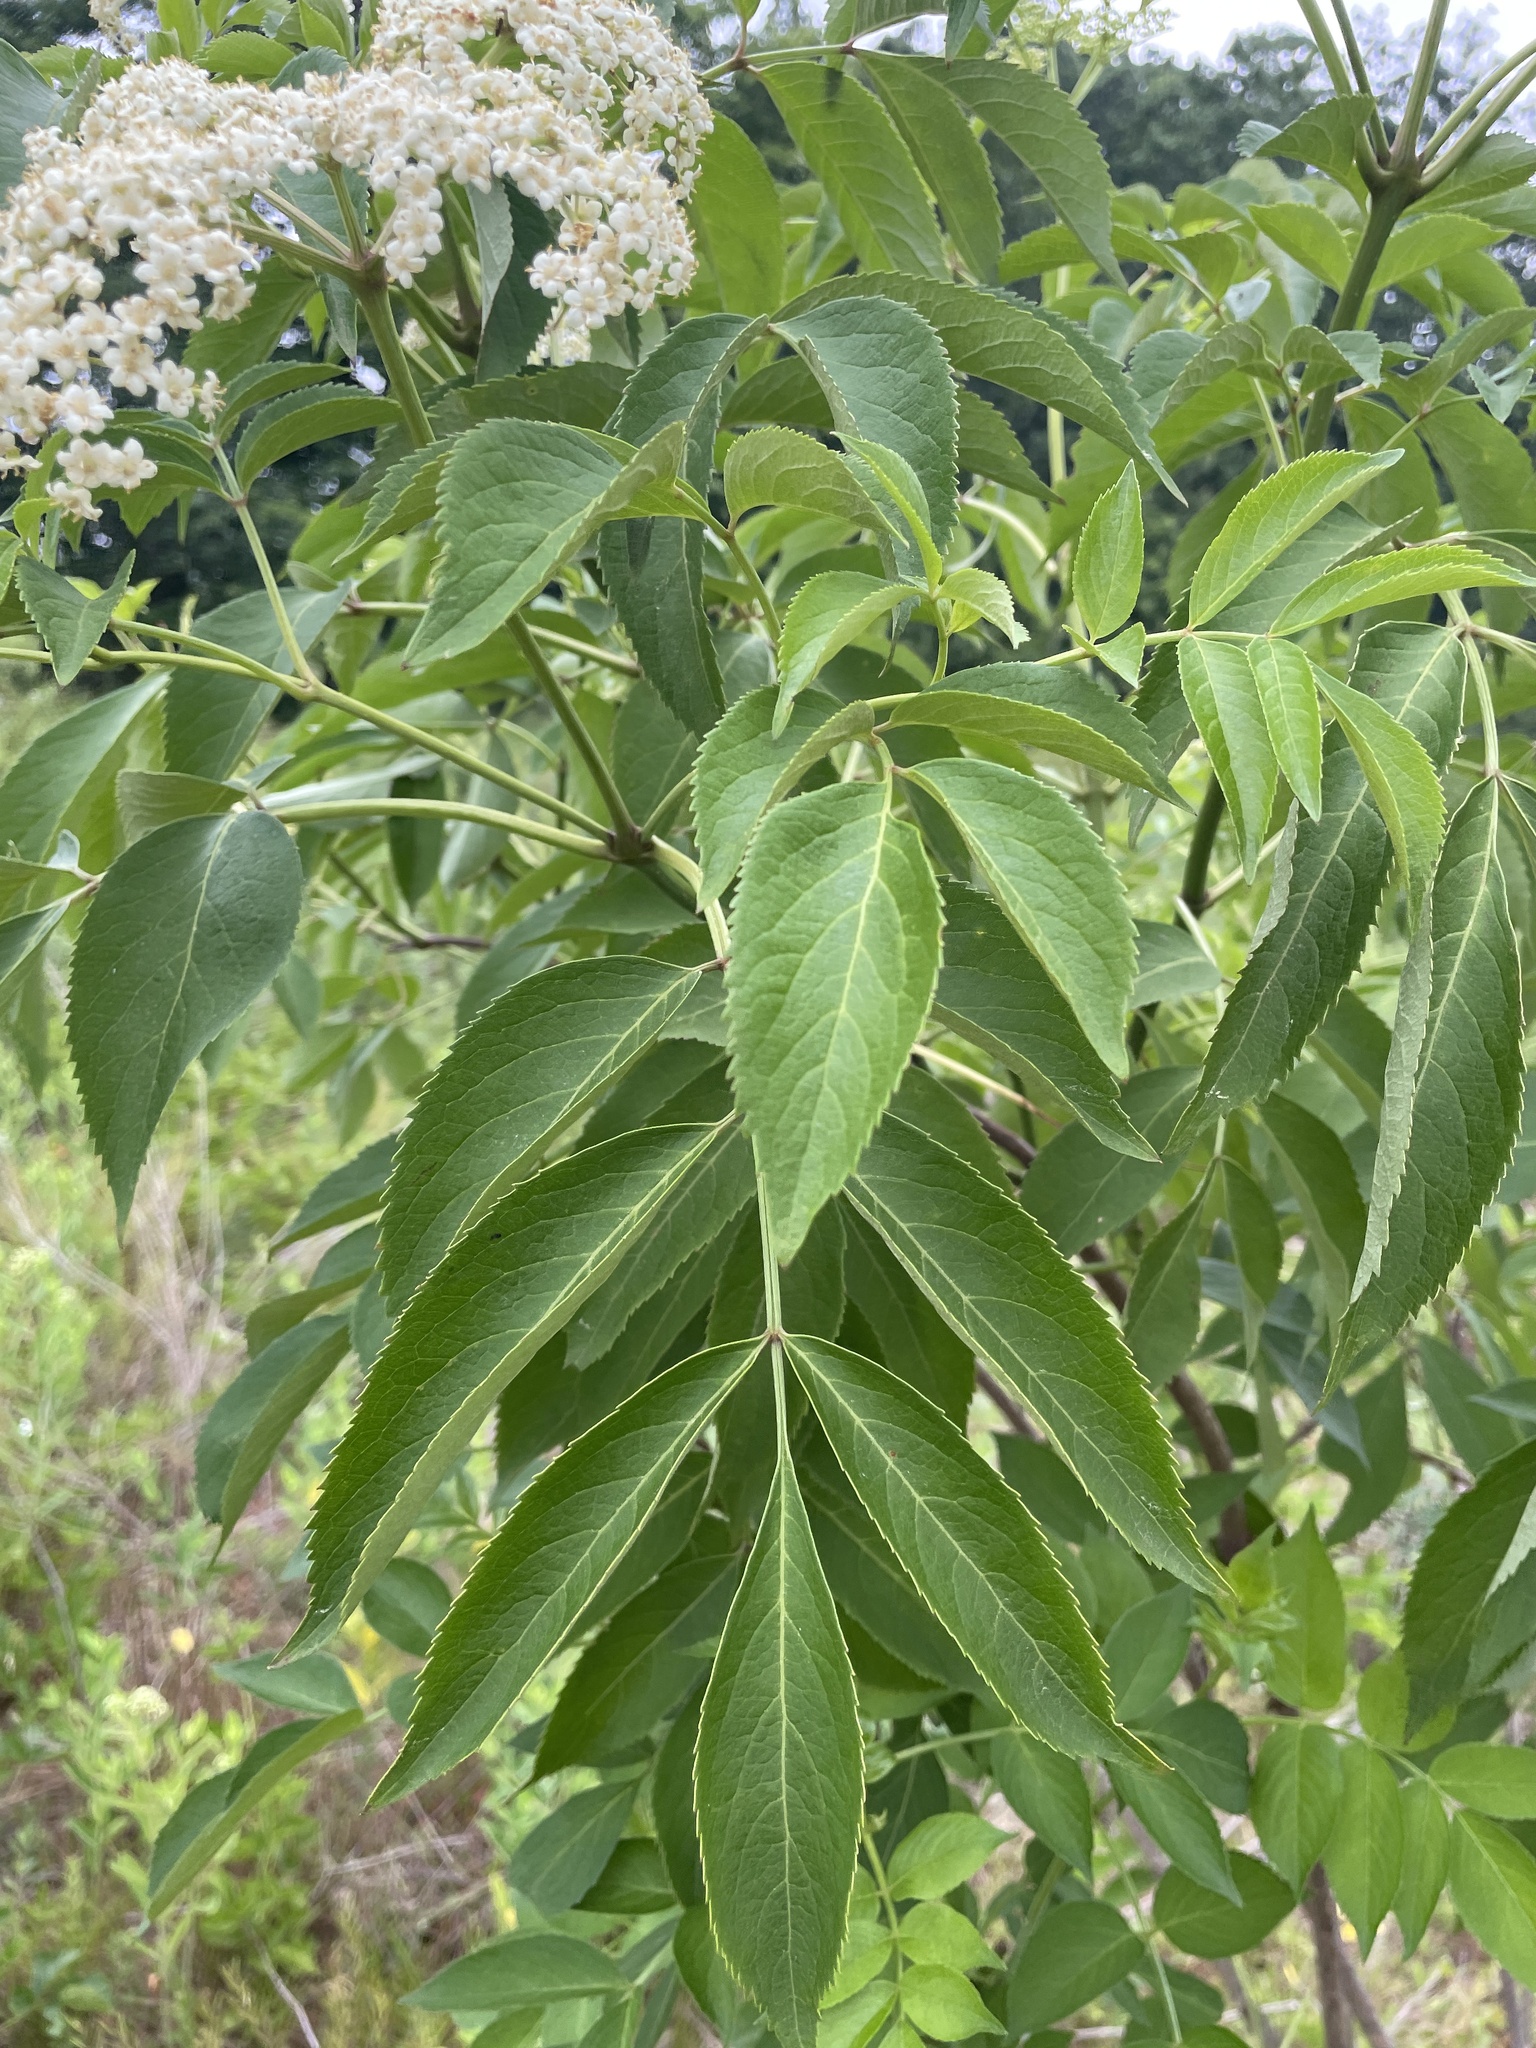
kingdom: Plantae
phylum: Tracheophyta
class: Magnoliopsida
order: Dipsacales
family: Viburnaceae
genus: Sambucus
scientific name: Sambucus canadensis
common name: American elder
